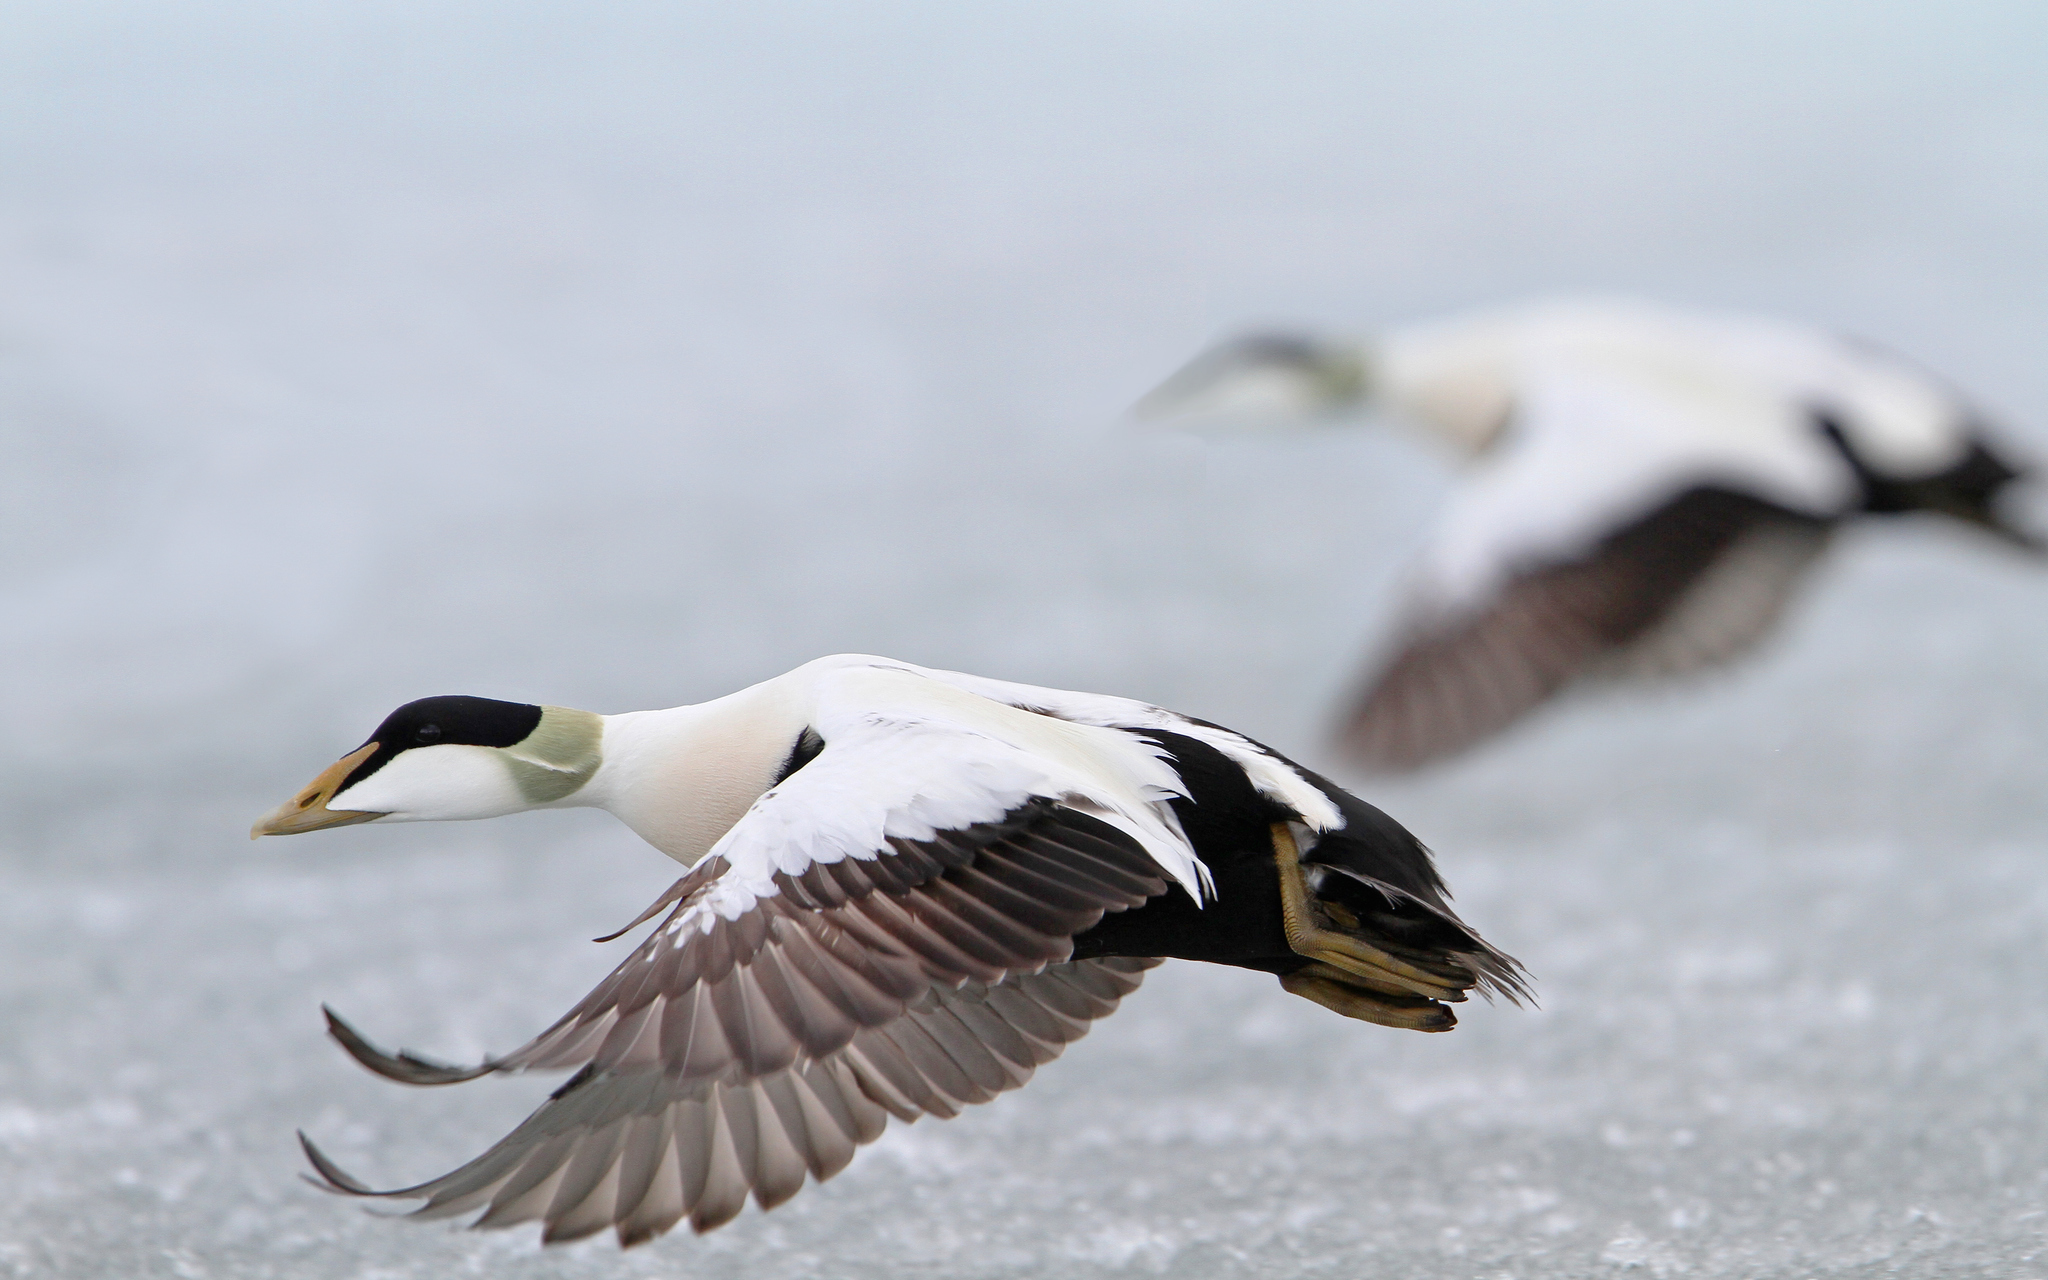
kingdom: Animalia
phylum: Chordata
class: Aves
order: Anseriformes
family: Anatidae
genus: Somateria
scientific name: Somateria mollissima
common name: Common eider
